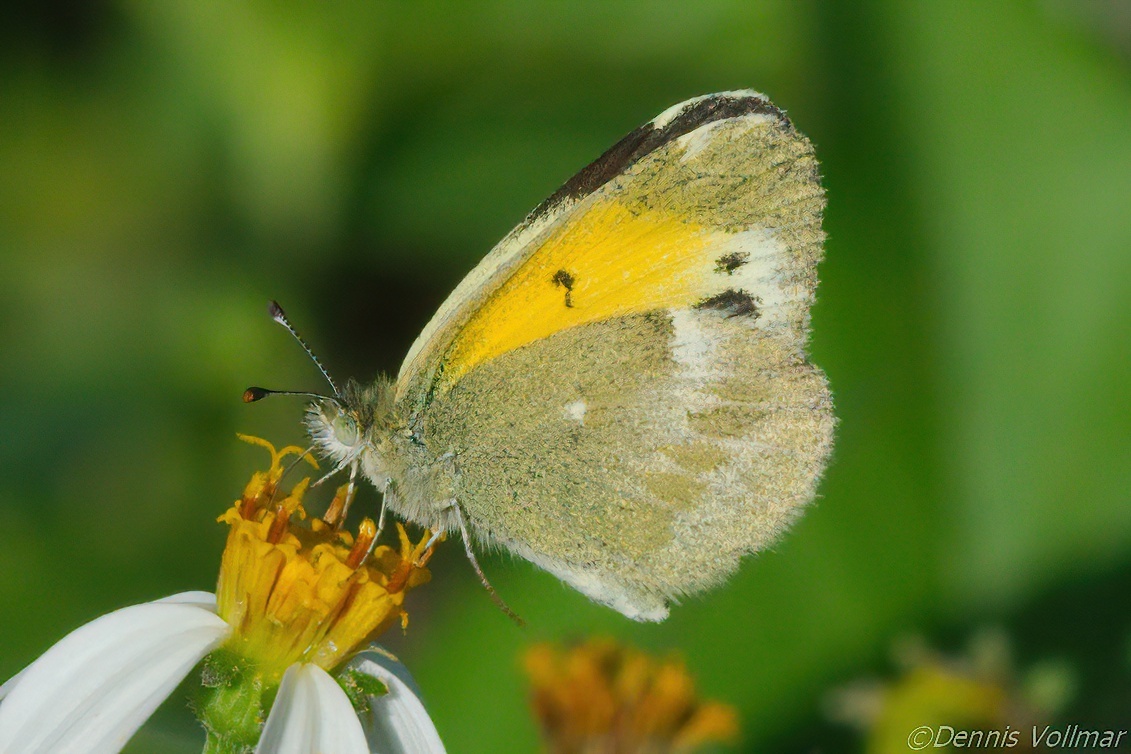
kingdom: Animalia
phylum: Arthropoda
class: Insecta
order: Lepidoptera
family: Pieridae
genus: Nathalis
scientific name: Nathalis iole
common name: Dainty sulphur
